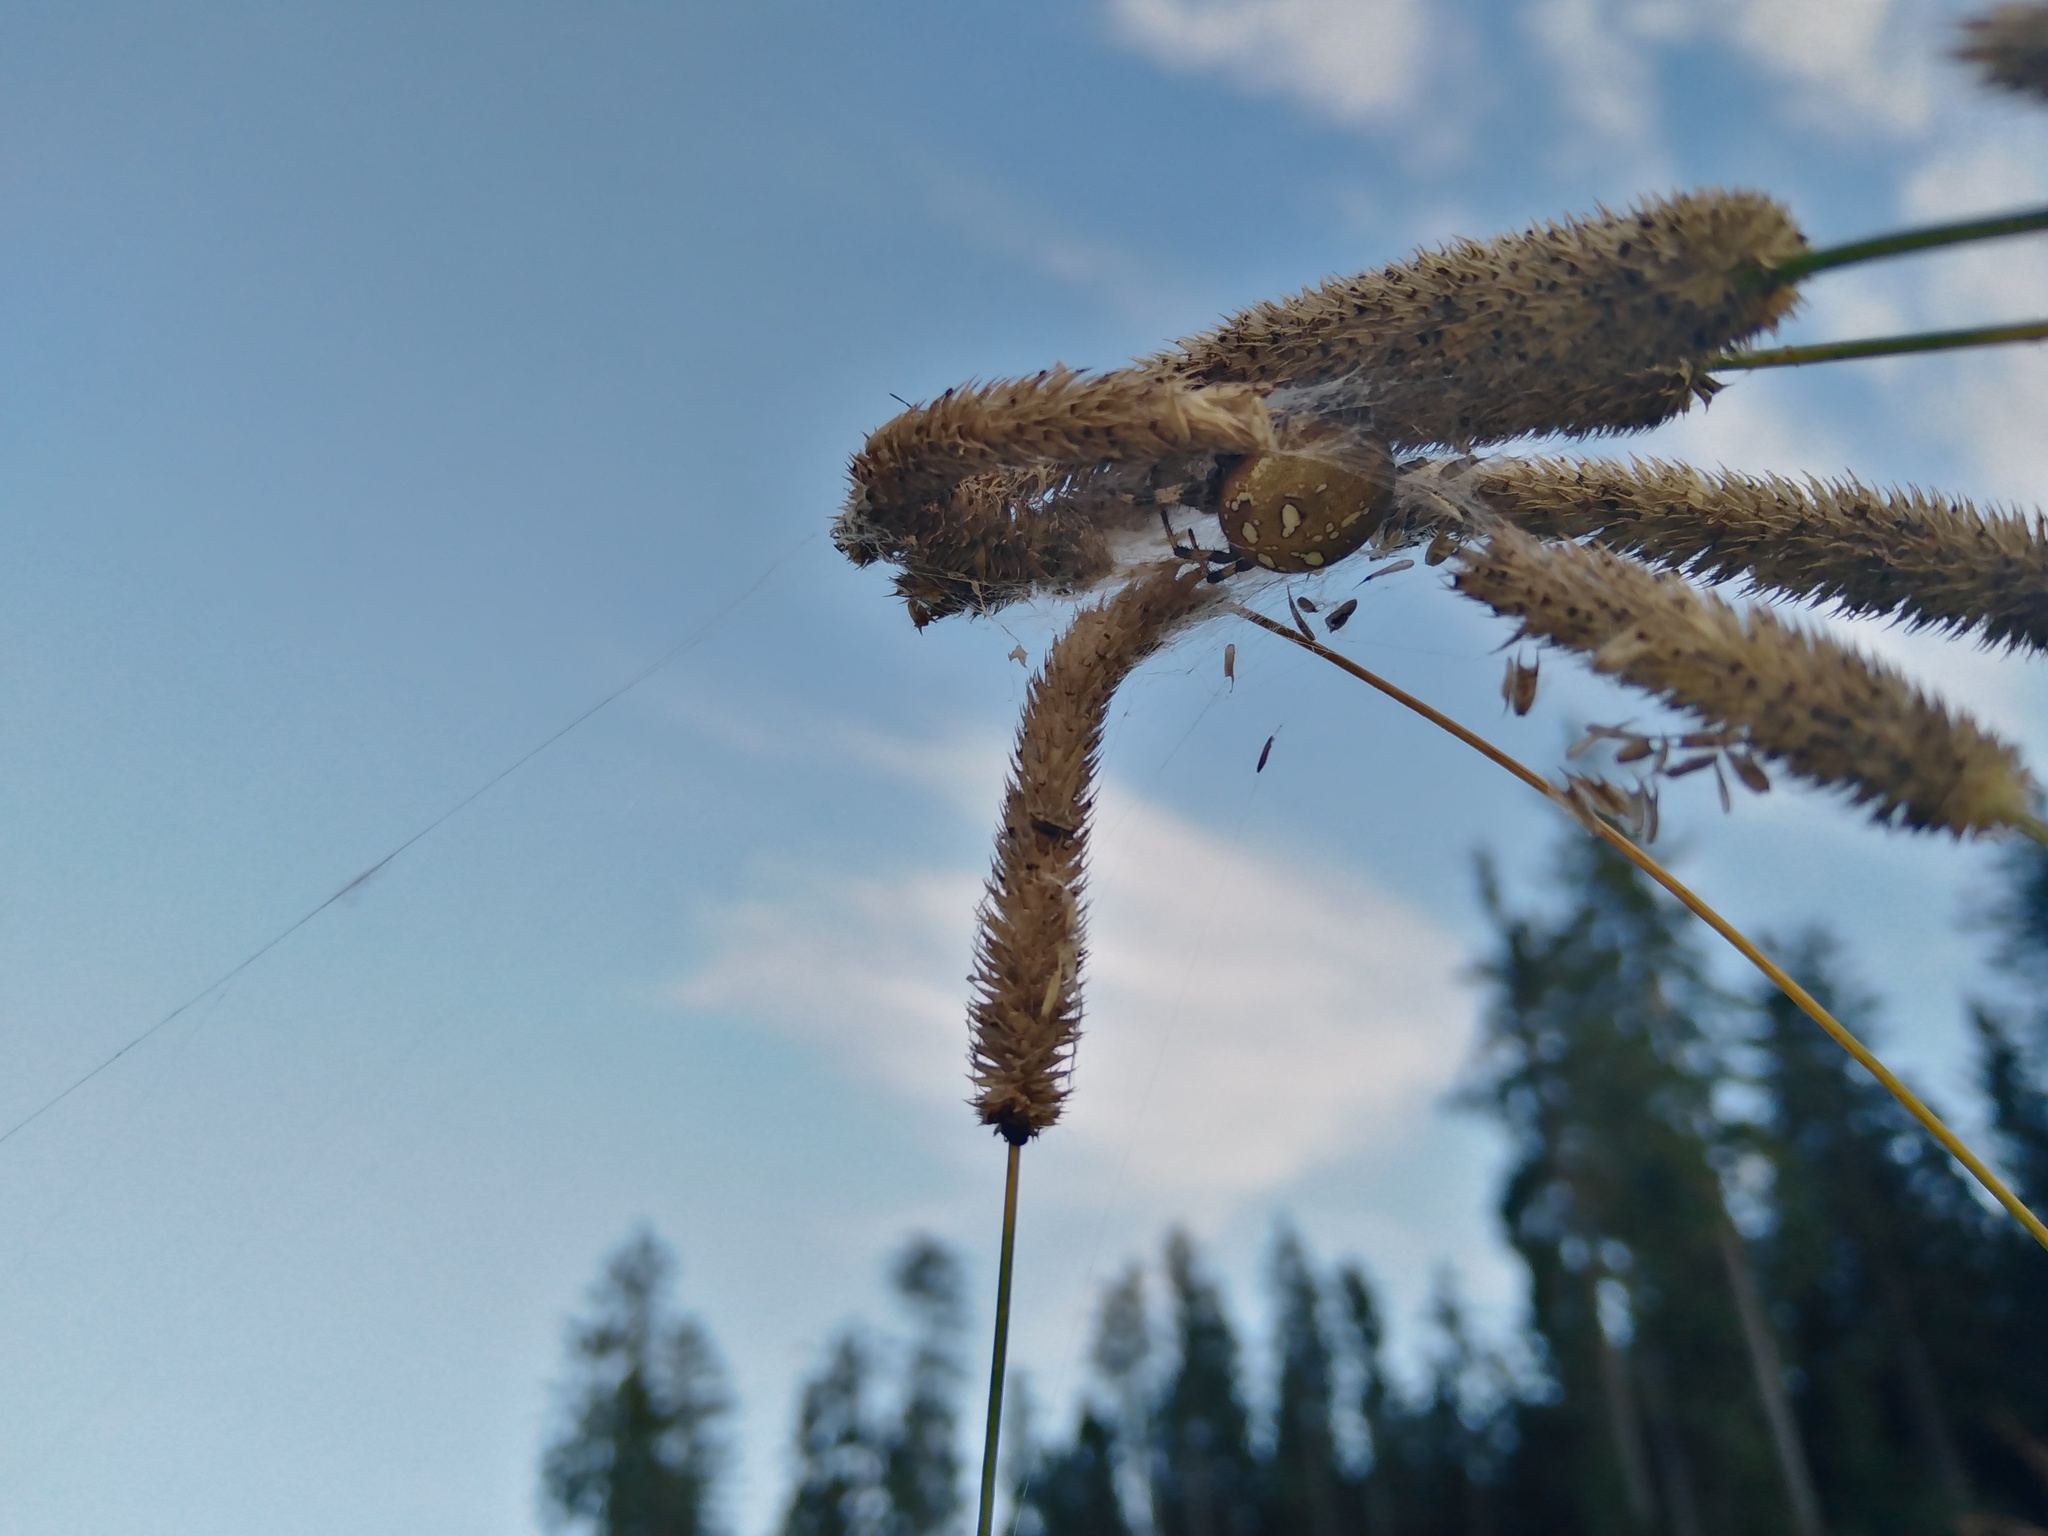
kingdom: Animalia
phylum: Arthropoda
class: Arachnida
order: Araneae
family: Araneidae
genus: Araneus
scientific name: Araneus quadratus
